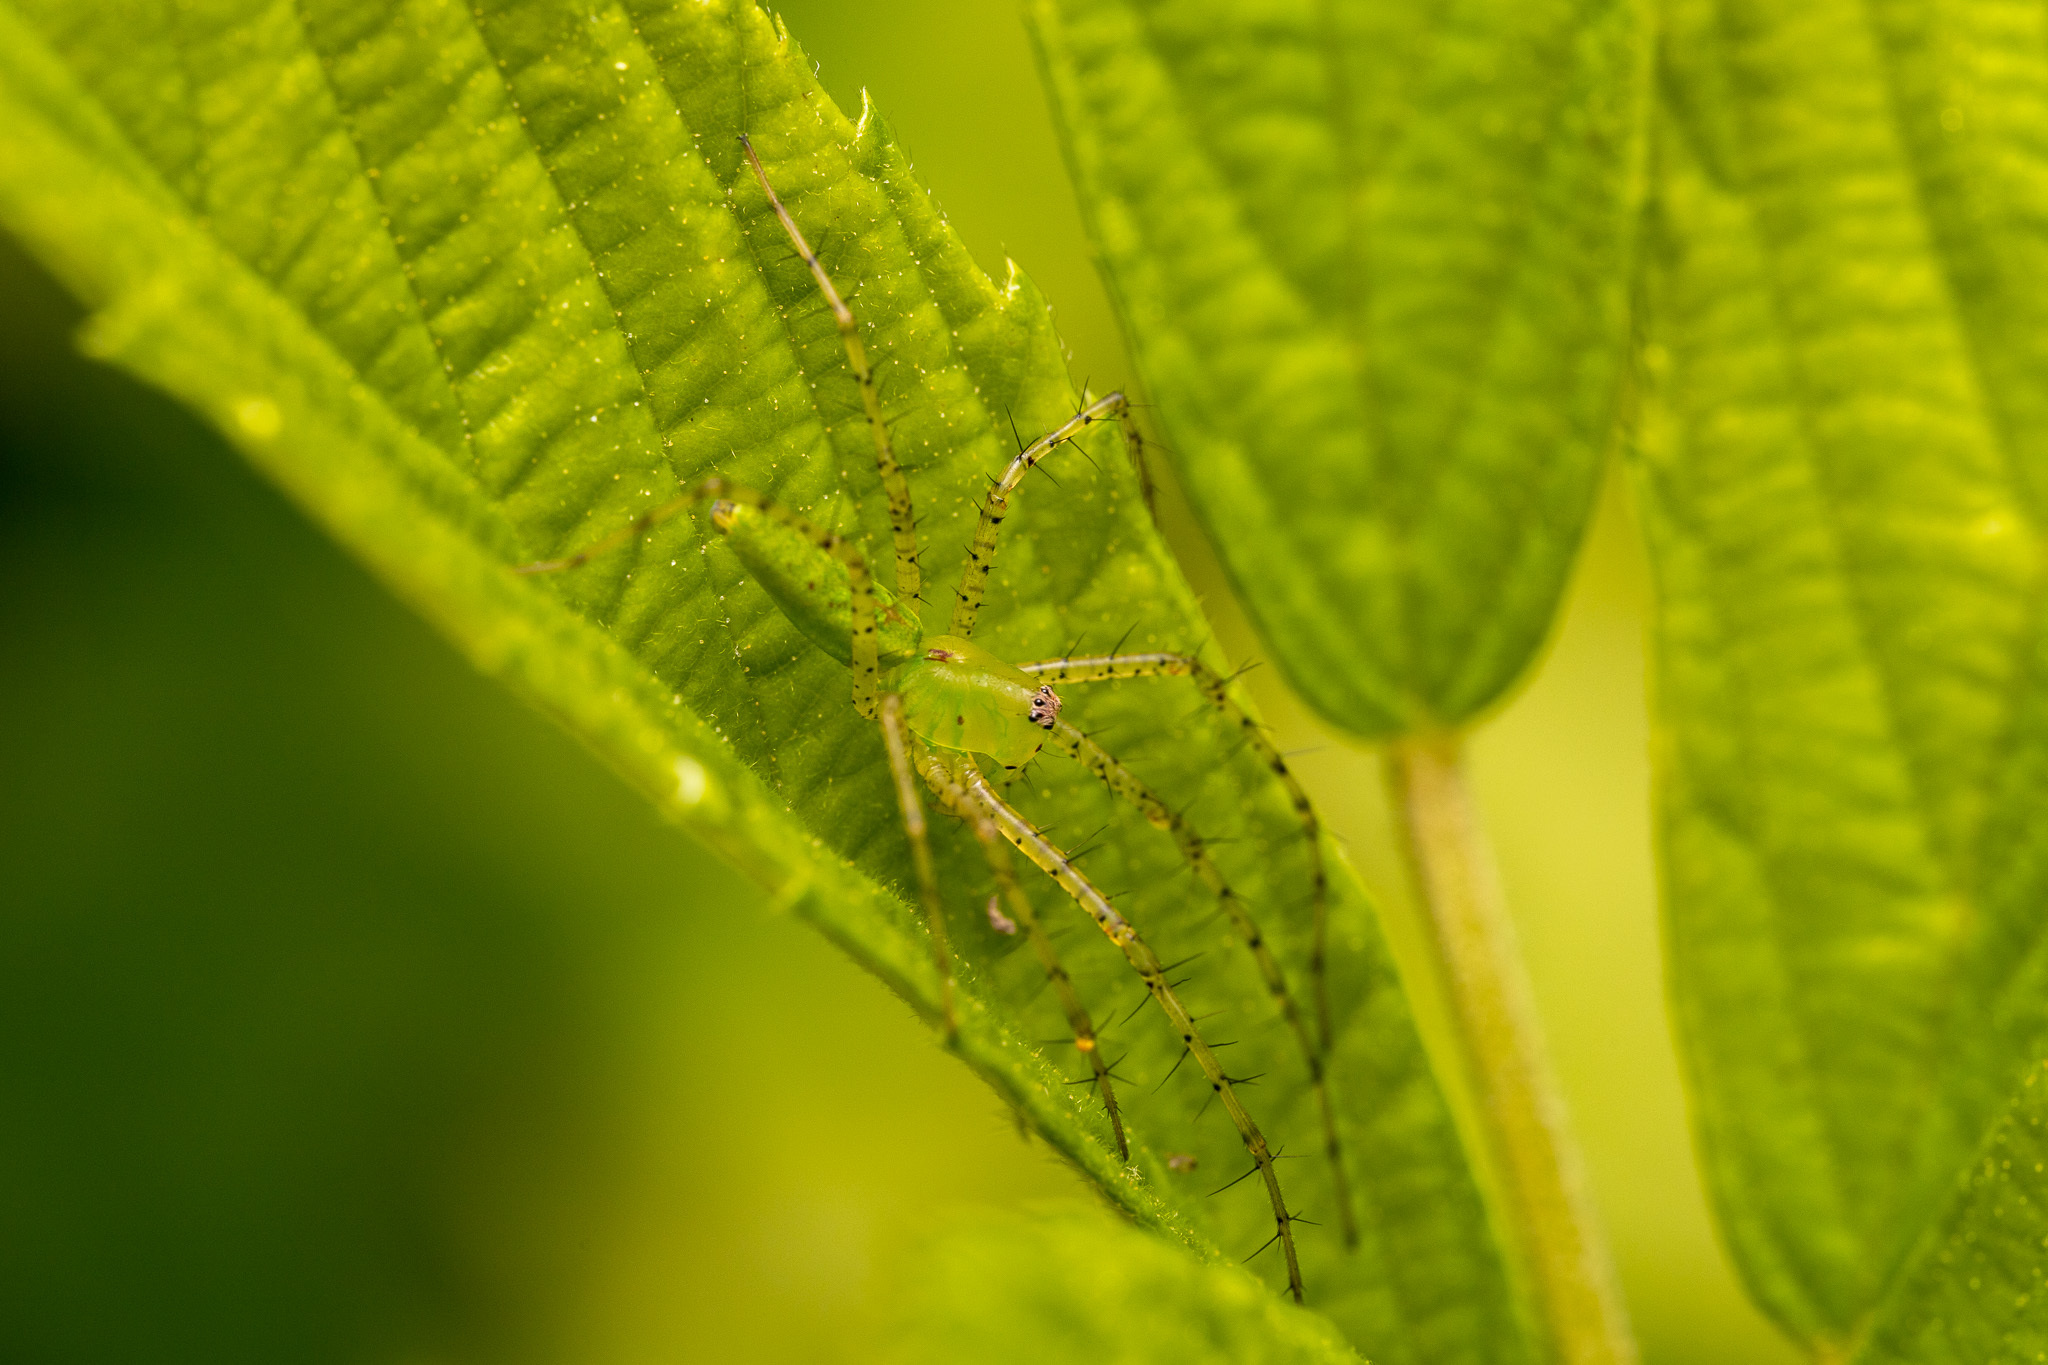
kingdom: Animalia
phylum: Arthropoda
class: Arachnida
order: Araneae
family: Oxyopidae
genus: Peucetia
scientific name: Peucetia viridans
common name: Lynx spiders
